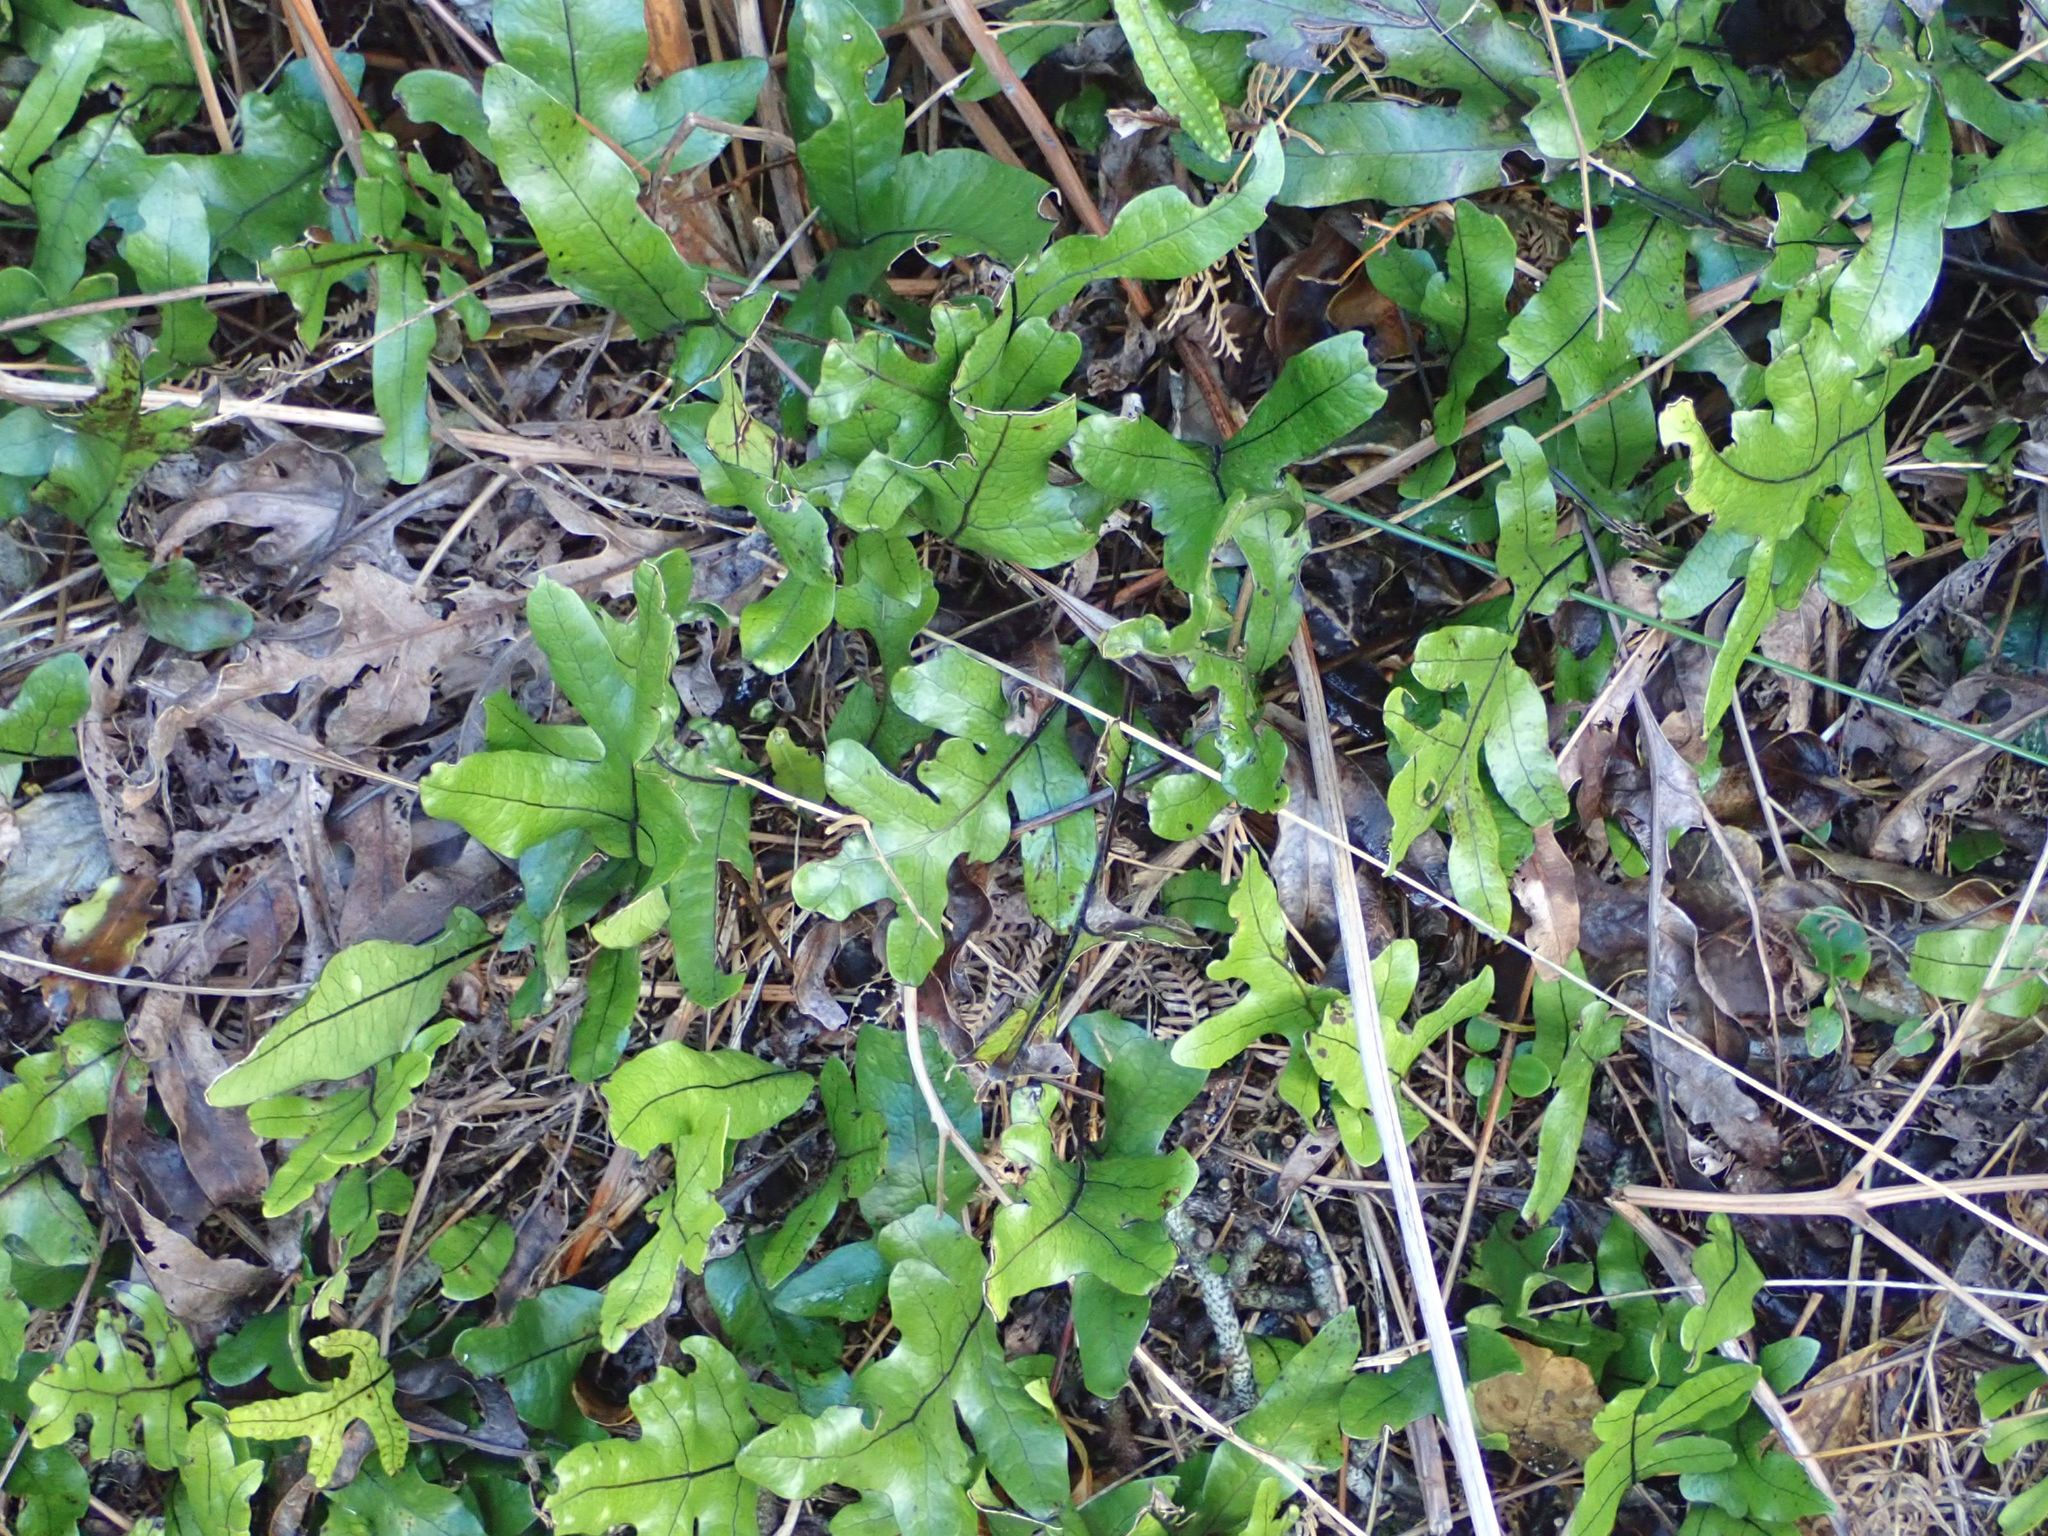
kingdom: Plantae
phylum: Tracheophyta
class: Polypodiopsida
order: Polypodiales
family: Polypodiaceae
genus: Lecanopteris
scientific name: Lecanopteris pustulata
